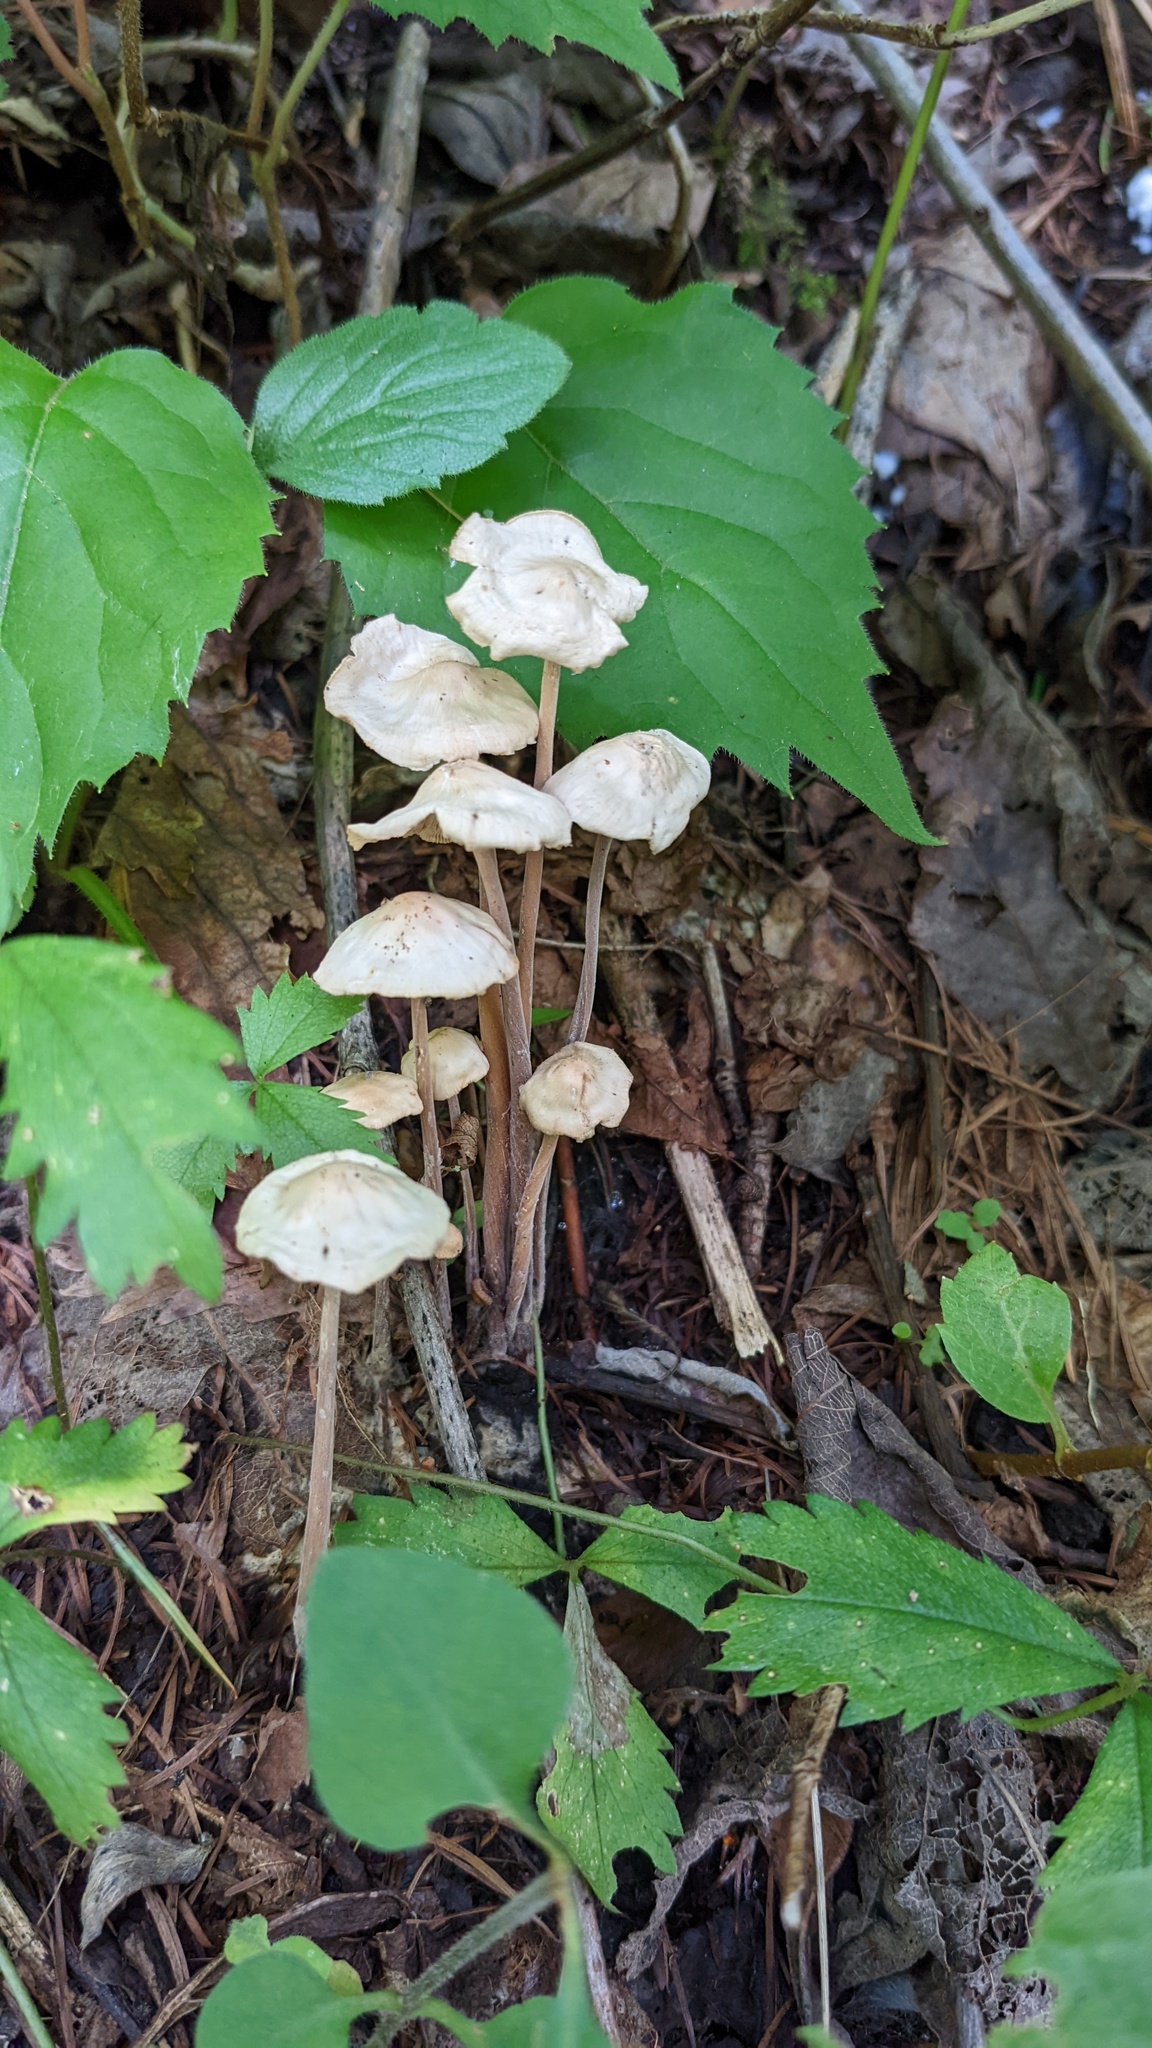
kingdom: Fungi
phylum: Basidiomycota
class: Agaricomycetes
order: Agaricales
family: Omphalotaceae
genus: Collybiopsis
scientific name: Collybiopsis confluens
